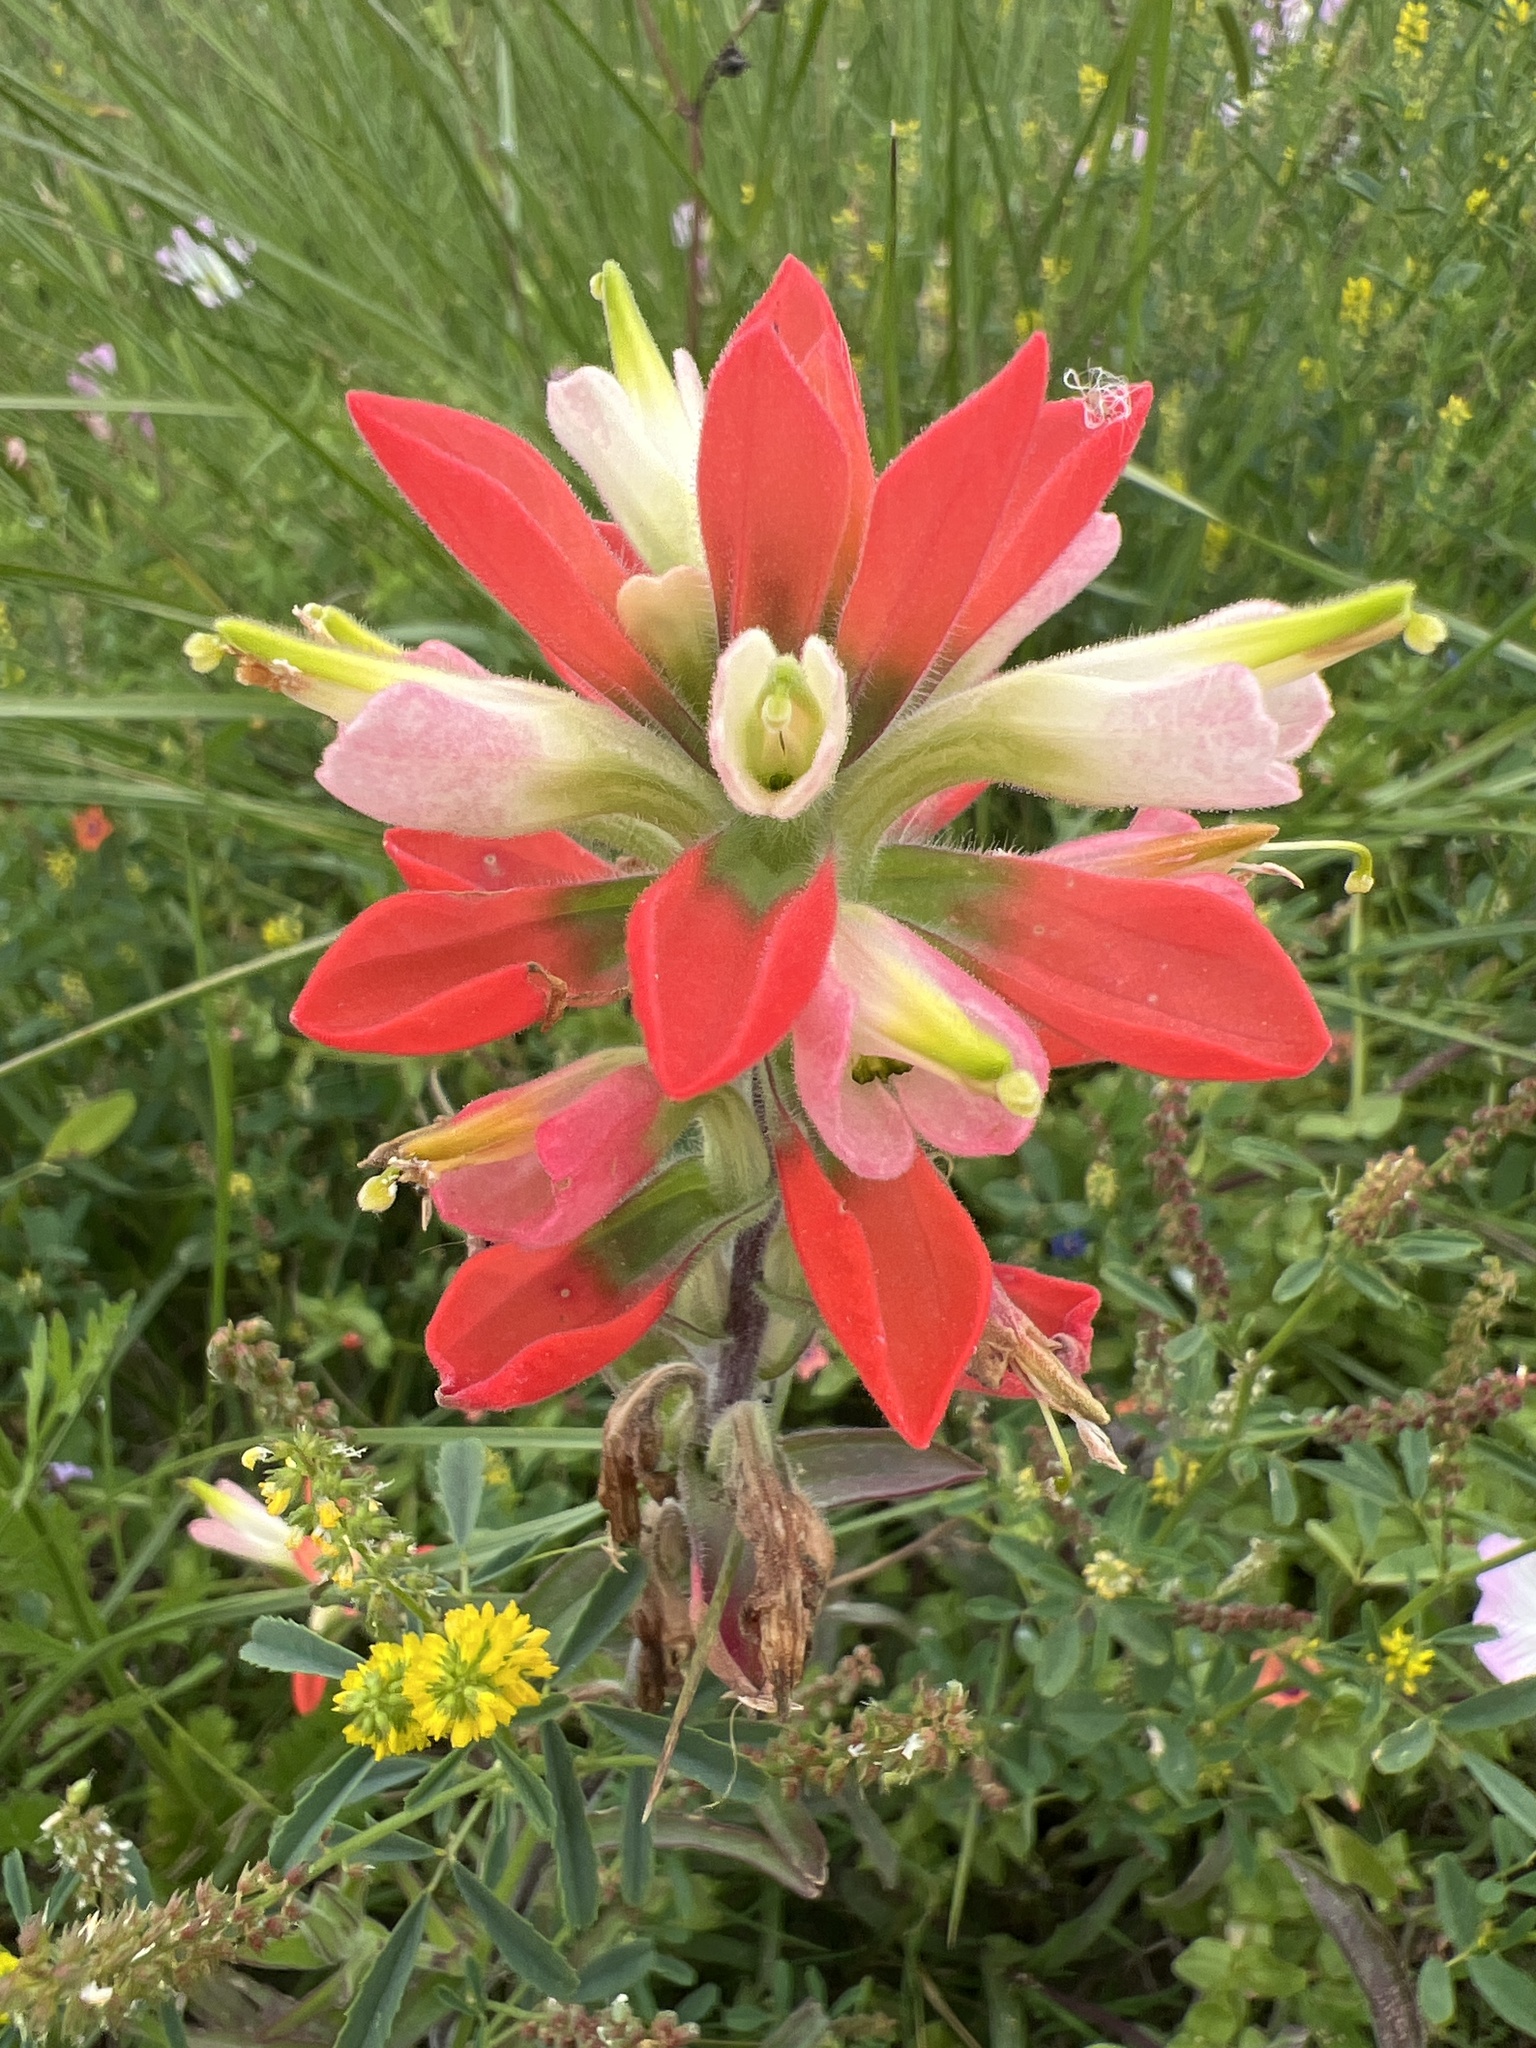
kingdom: Plantae
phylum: Tracheophyta
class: Magnoliopsida
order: Lamiales
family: Orobanchaceae
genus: Castilleja
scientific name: Castilleja indivisa
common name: Texas paintbrush
